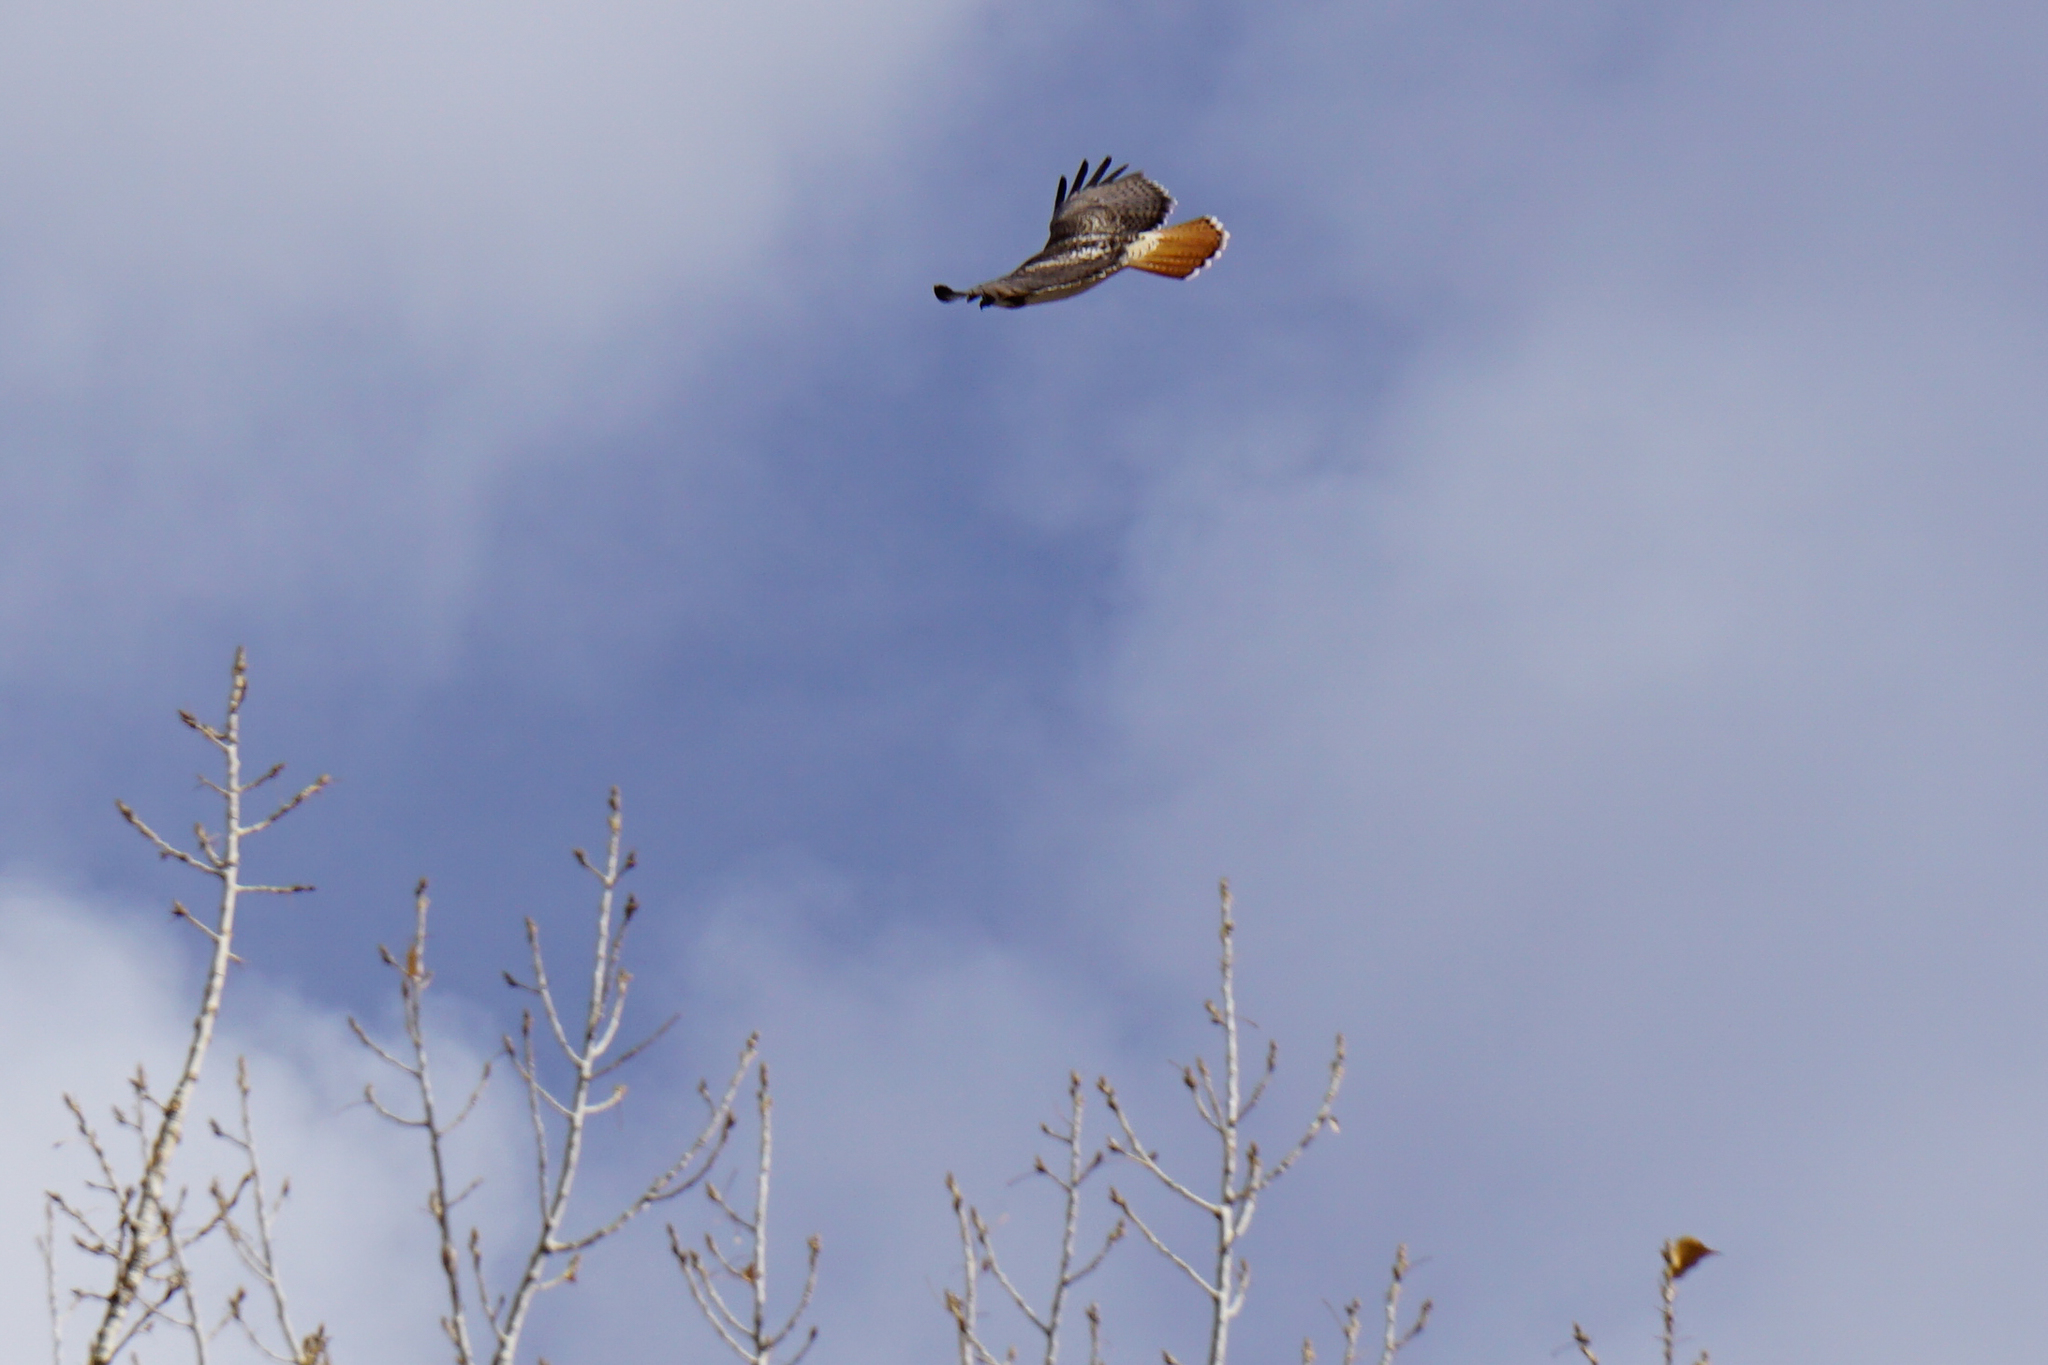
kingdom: Animalia
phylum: Chordata
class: Aves
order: Accipitriformes
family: Accipitridae
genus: Buteo
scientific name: Buteo jamaicensis
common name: Red-tailed hawk
